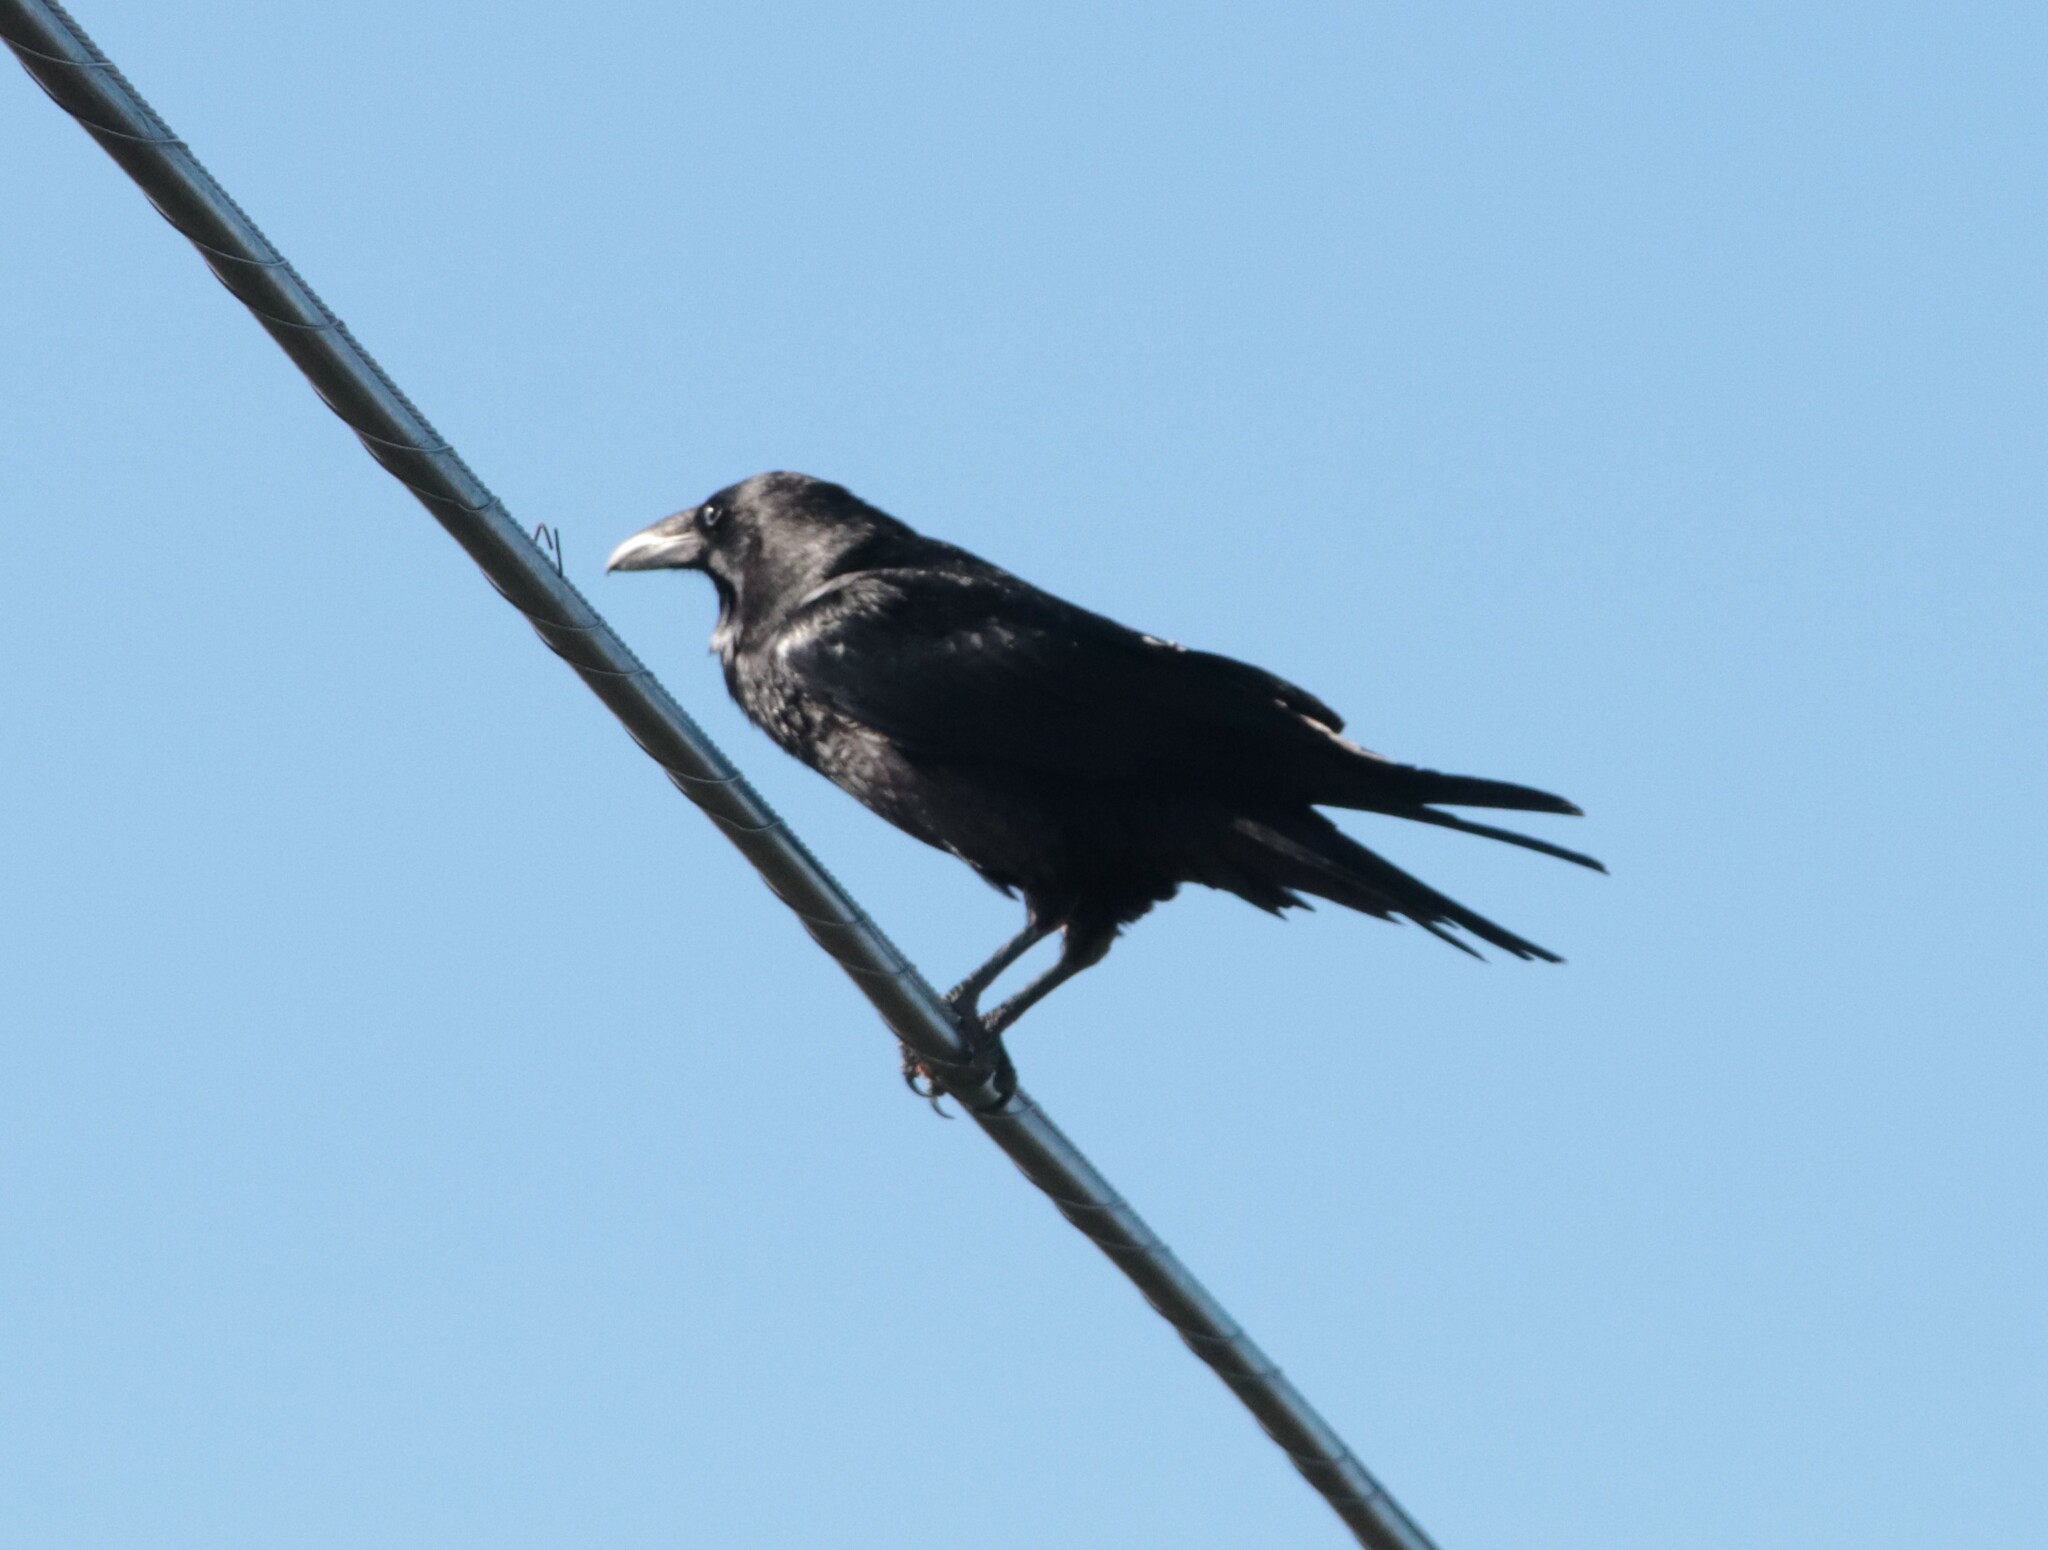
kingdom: Animalia
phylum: Chordata
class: Aves
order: Passeriformes
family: Corvidae
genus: Corvus
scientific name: Corvus corax
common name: Common raven
